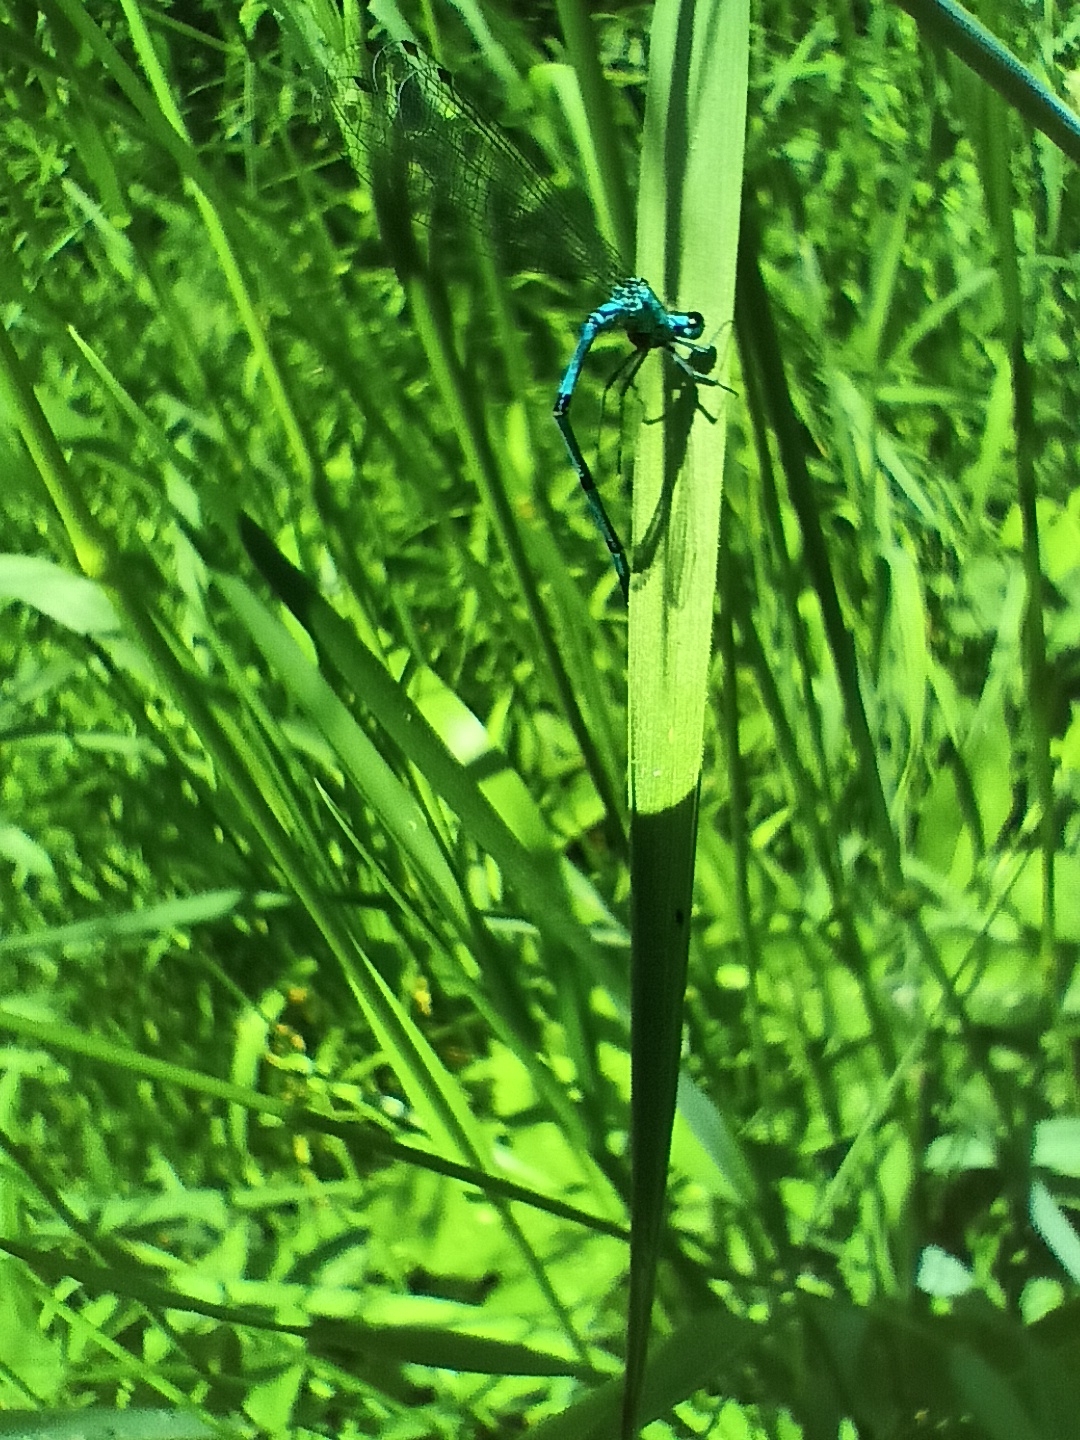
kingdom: Animalia
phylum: Arthropoda
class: Insecta
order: Odonata
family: Coenagrionidae
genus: Coenagrion
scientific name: Coenagrion puella
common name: Azure damselfly
